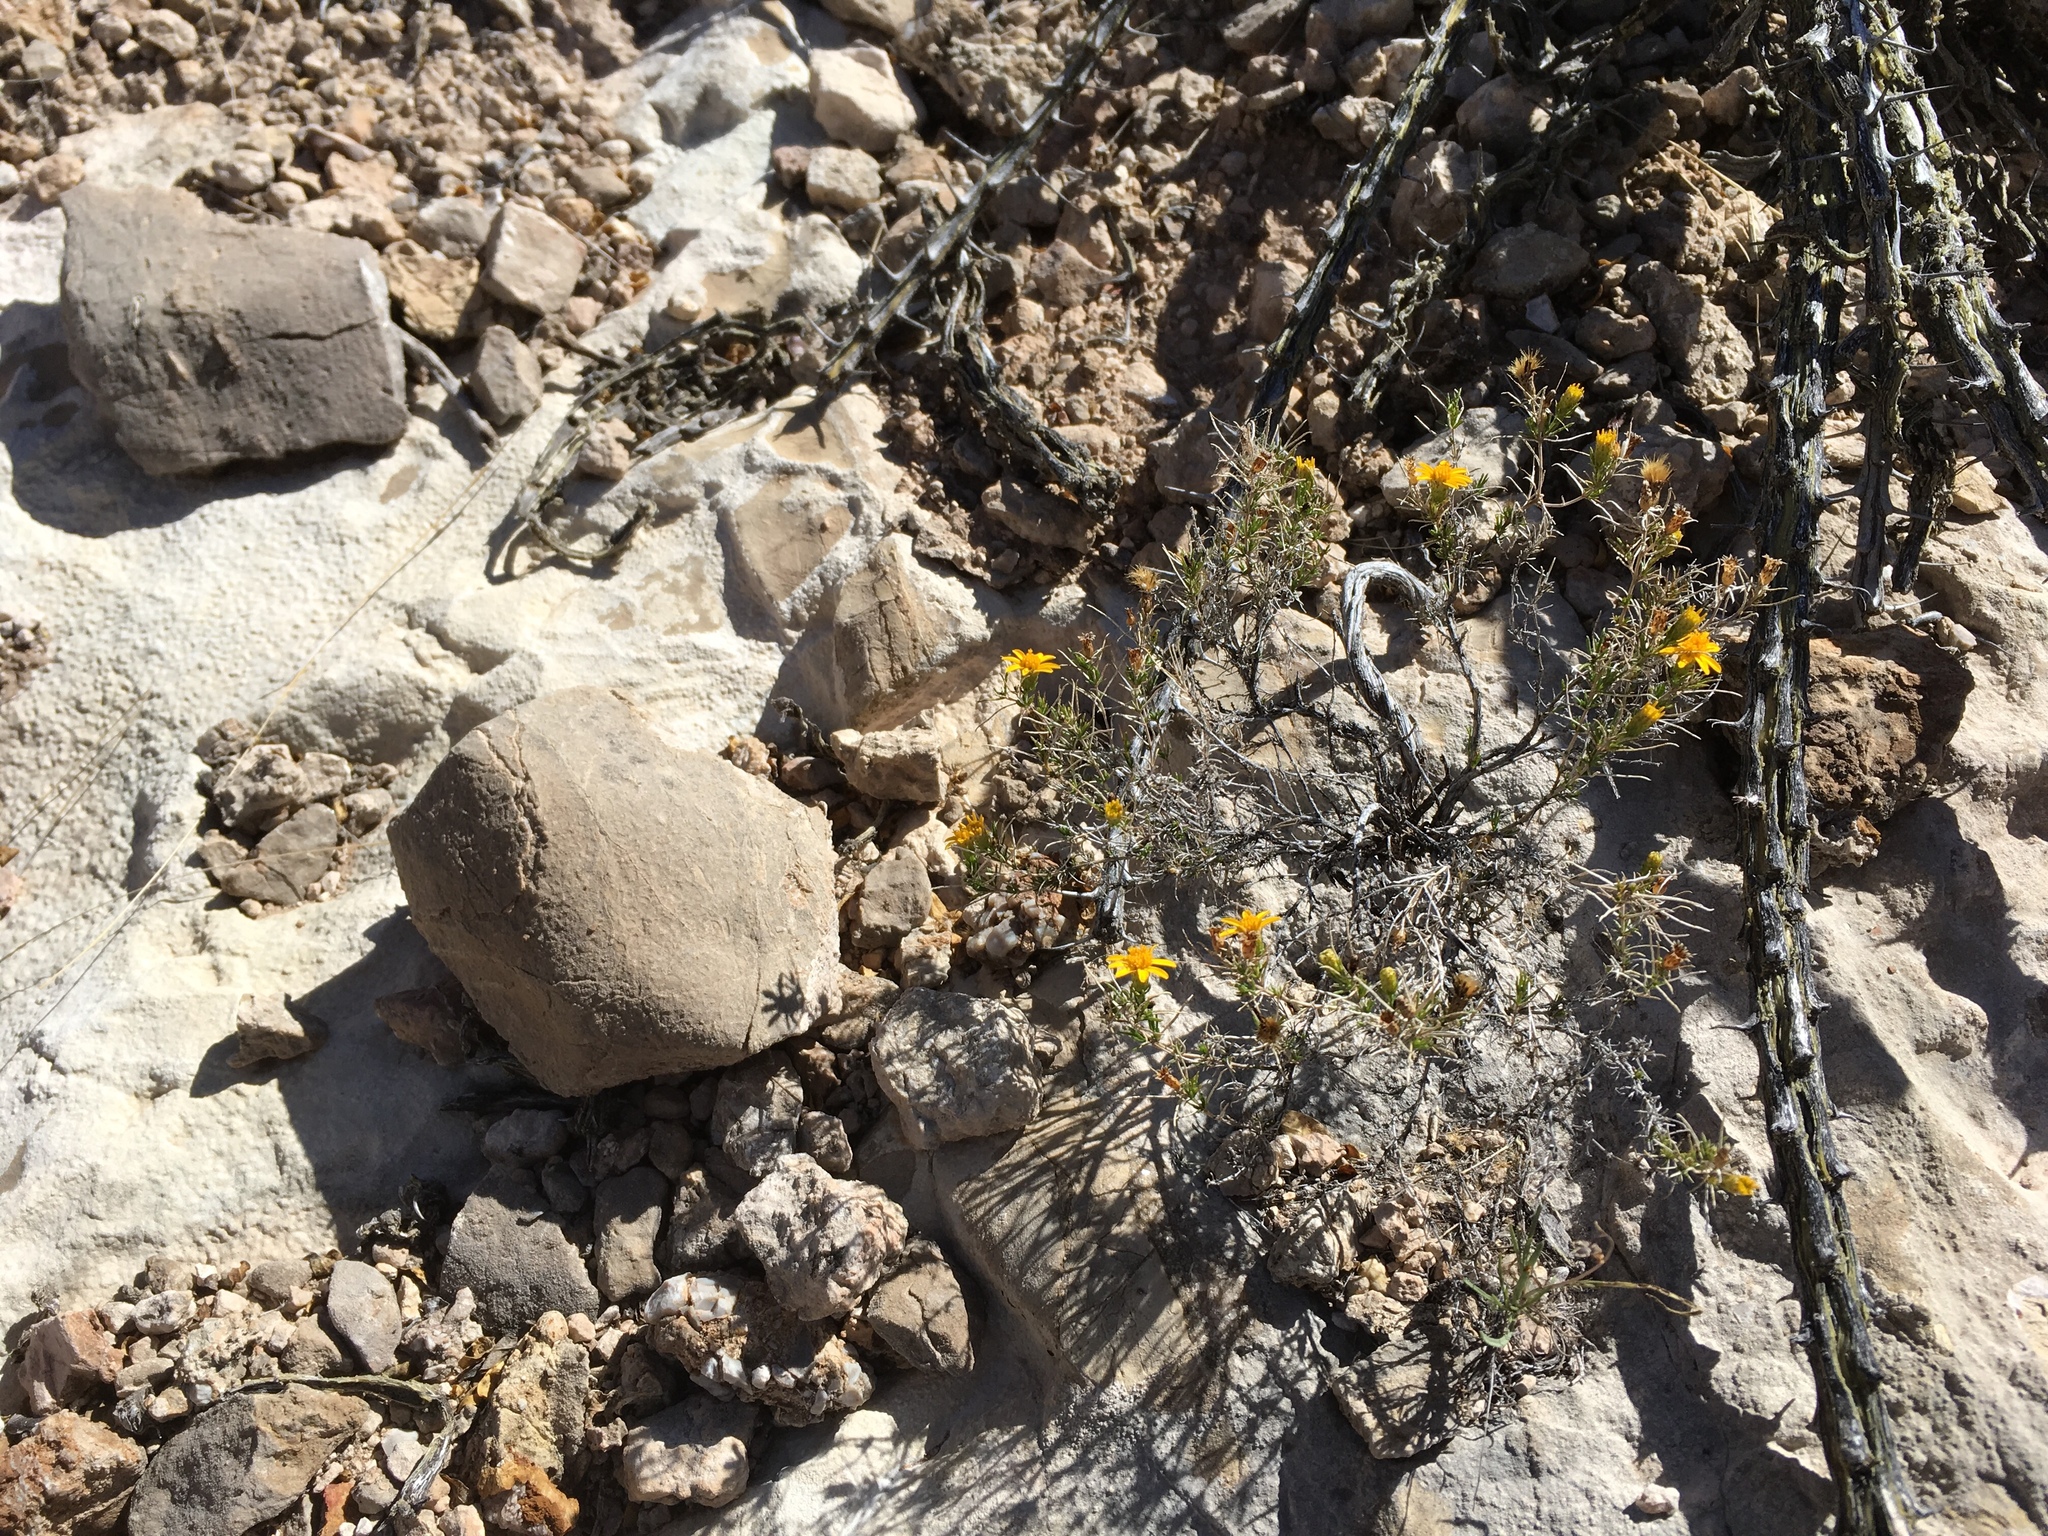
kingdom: Plantae
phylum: Tracheophyta
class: Magnoliopsida
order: Asterales
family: Asteraceae
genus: Thymophylla
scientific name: Thymophylla acerosa
